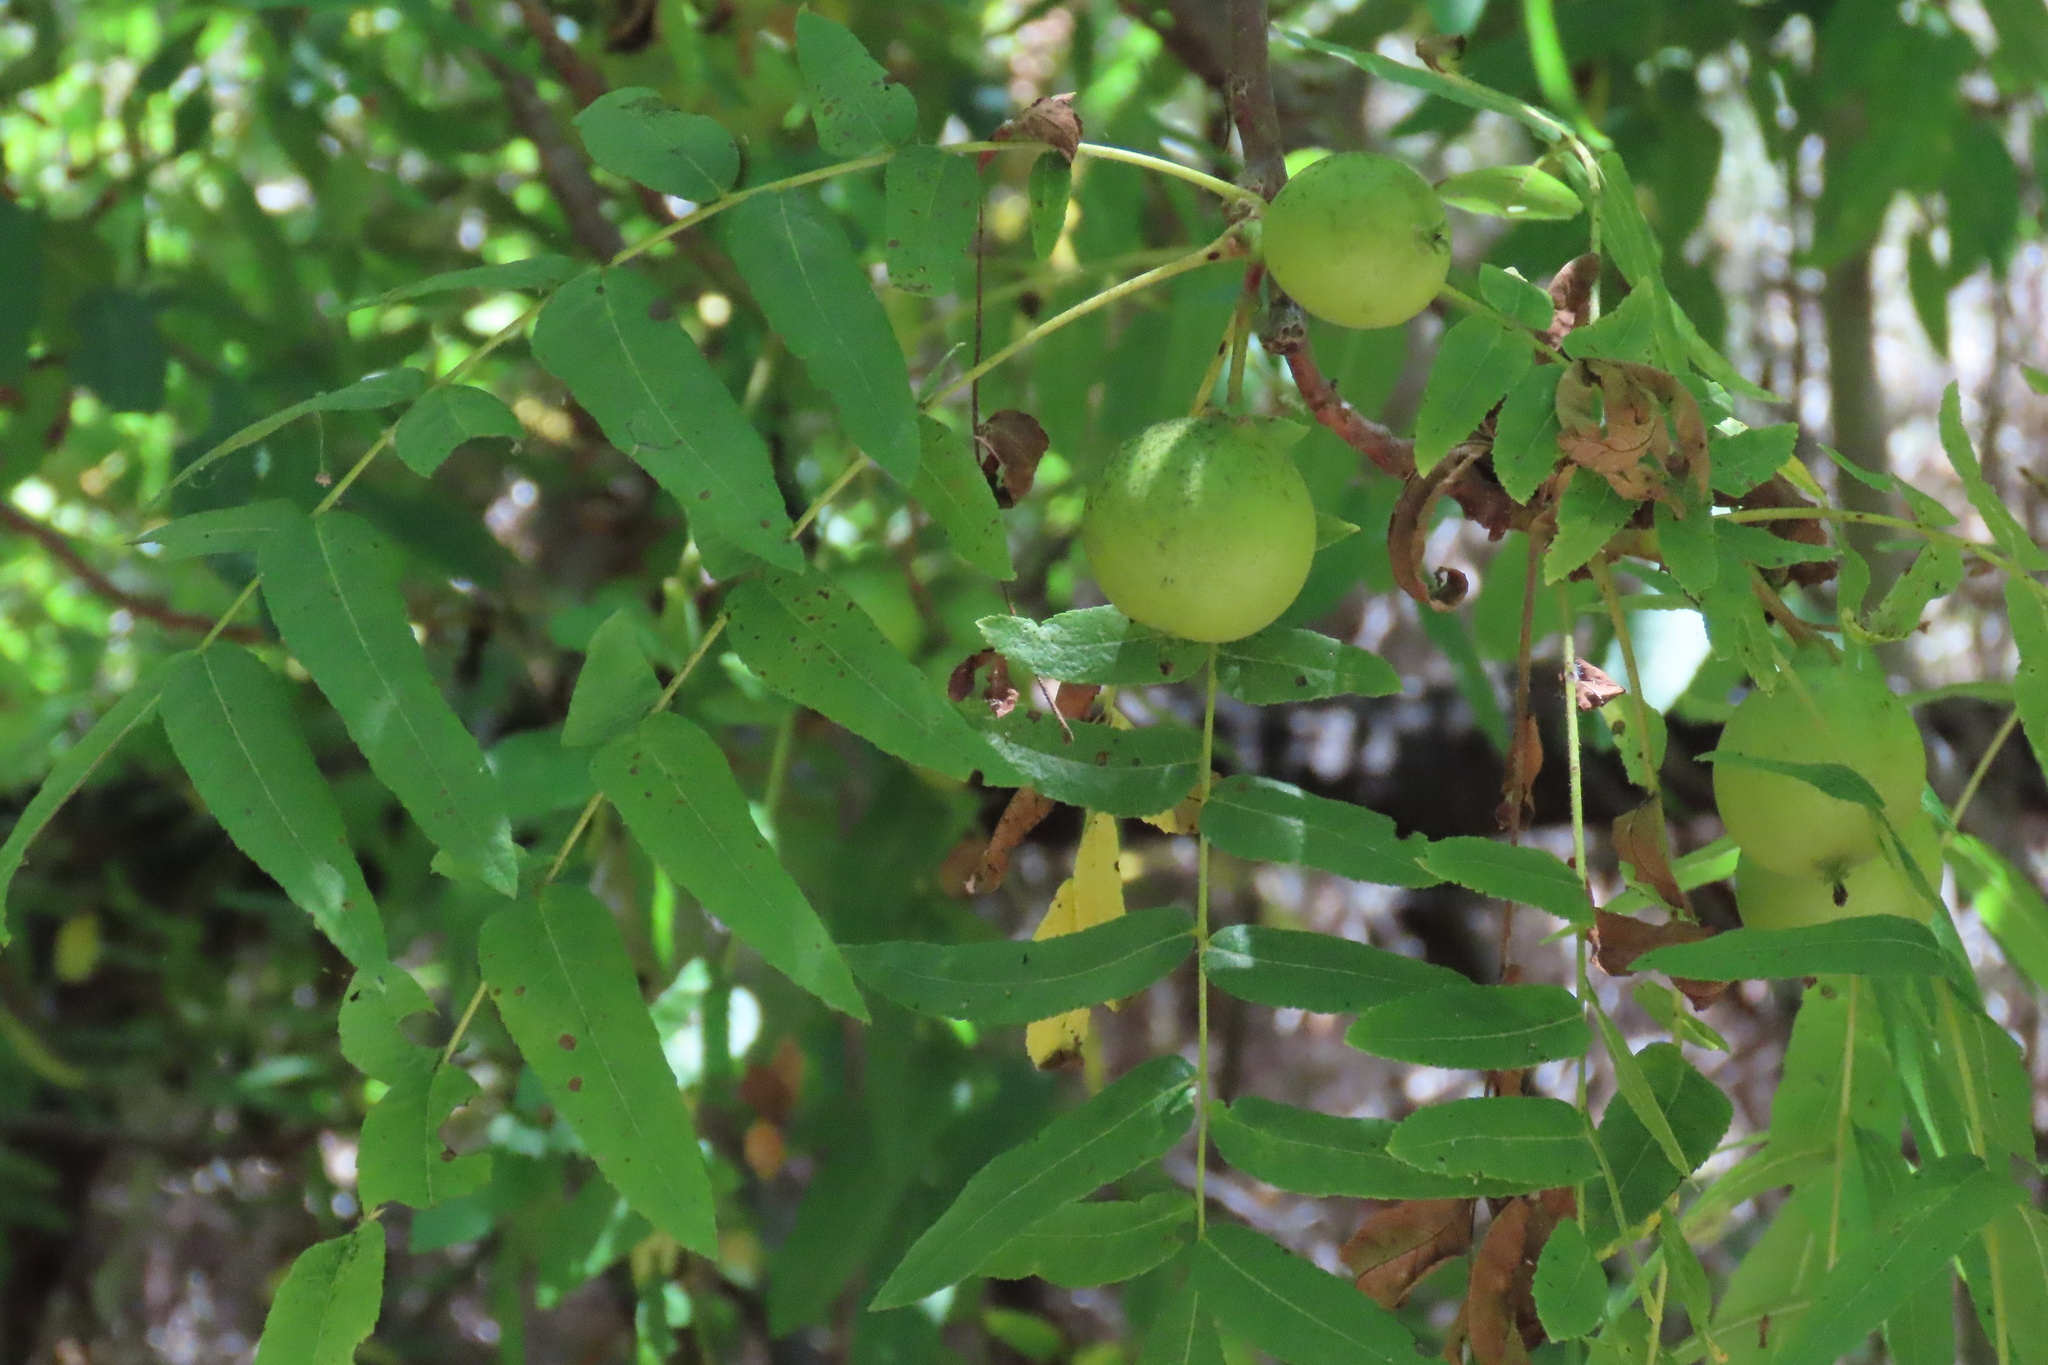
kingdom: Plantae
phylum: Tracheophyta
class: Magnoliopsida
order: Fagales
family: Juglandaceae
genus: Juglans
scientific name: Juglans californica
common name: Southern california black walnut
